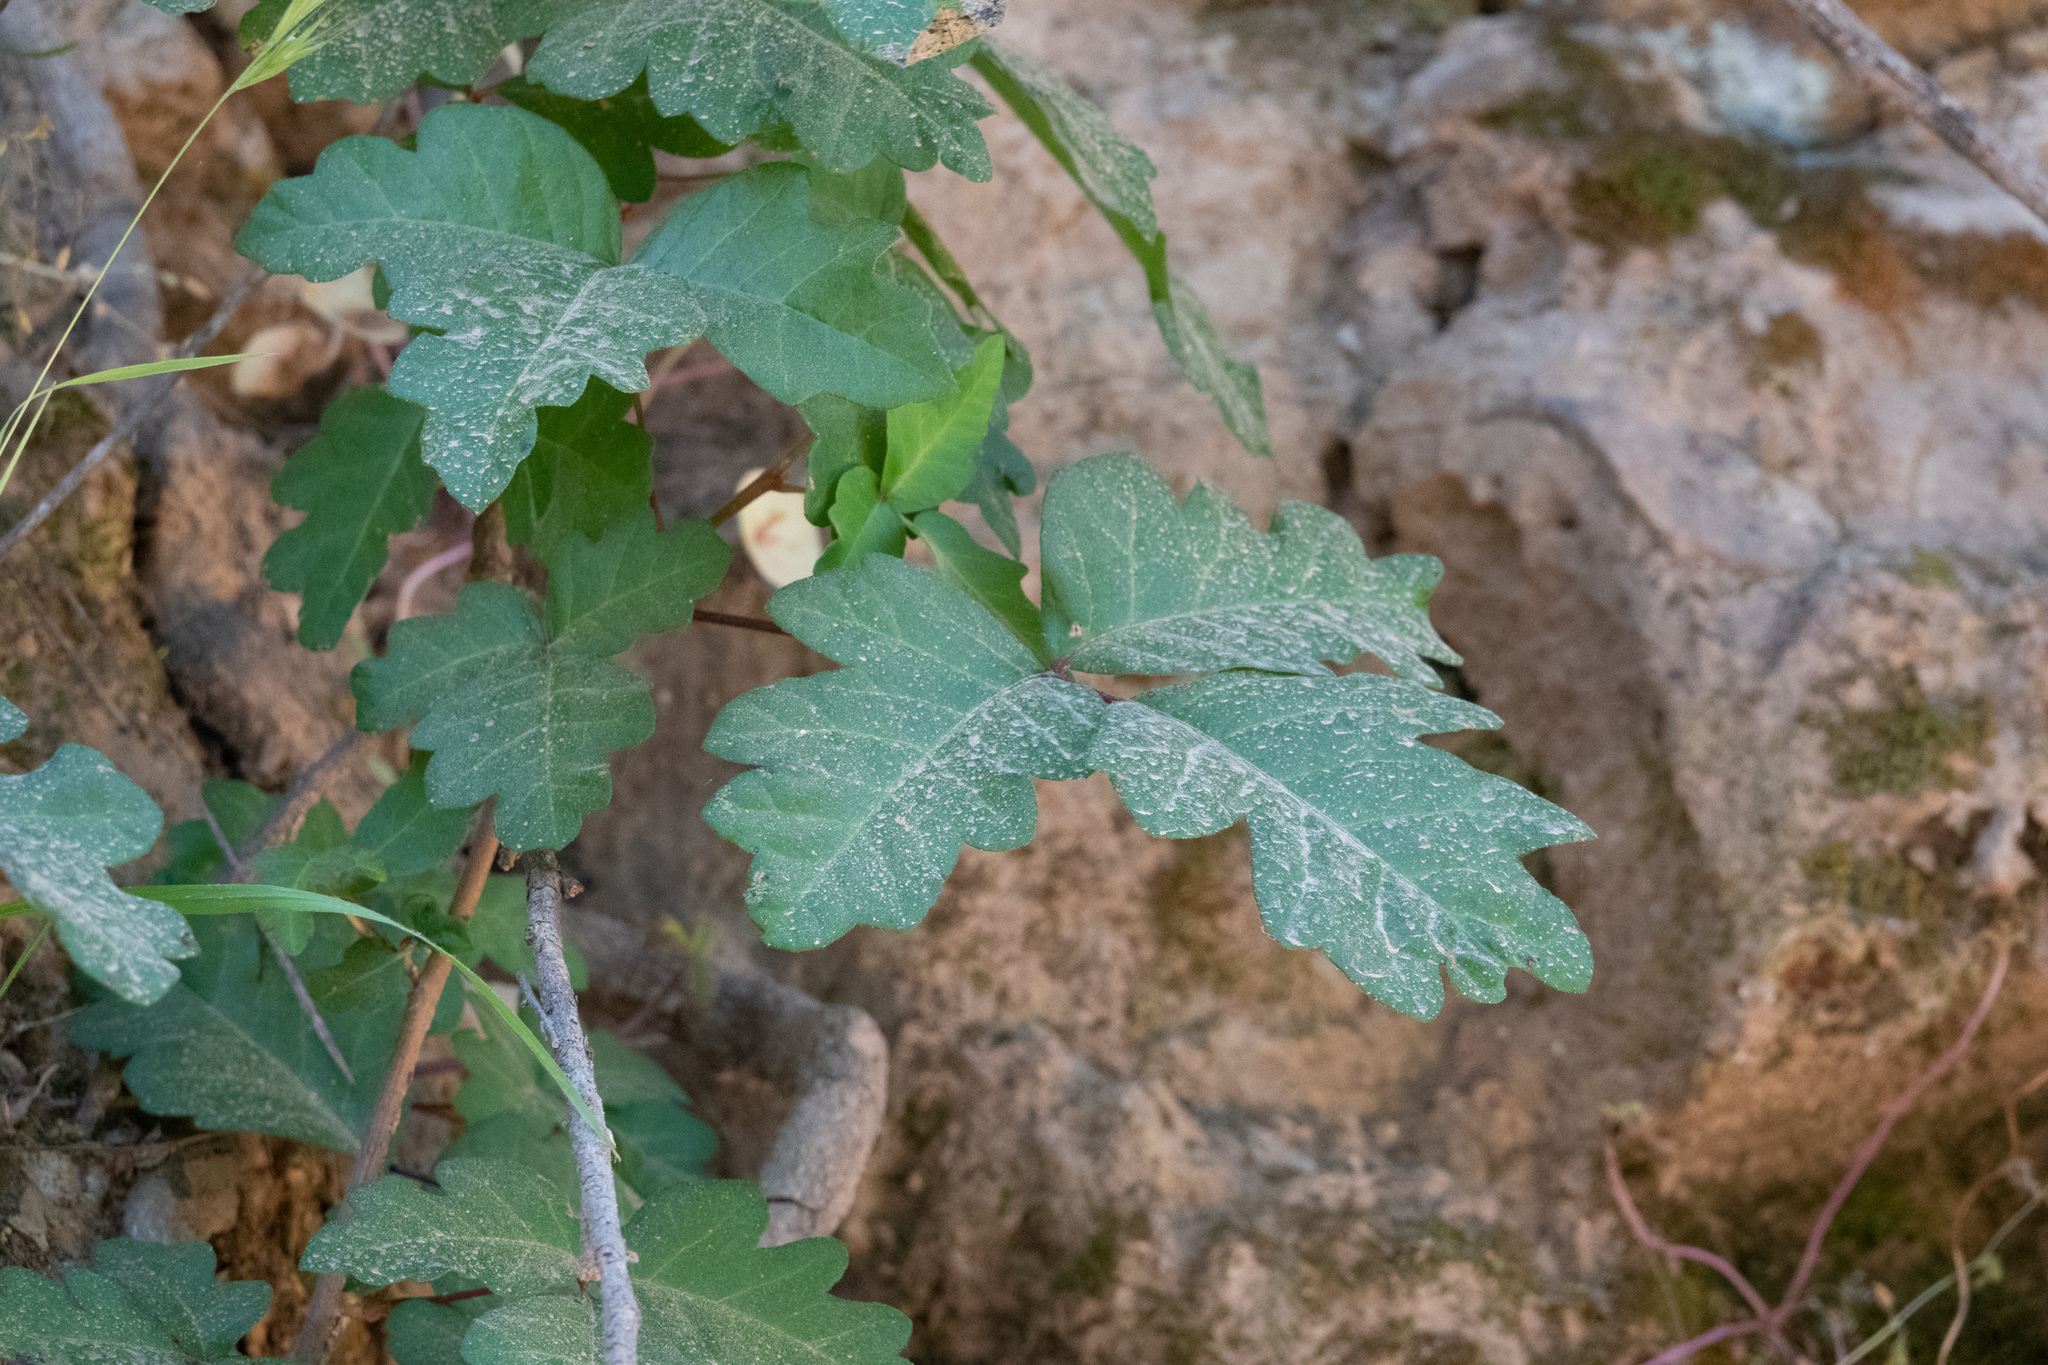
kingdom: Plantae
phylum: Tracheophyta
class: Magnoliopsida
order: Sapindales
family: Anacardiaceae
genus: Toxicodendron
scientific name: Toxicodendron diversilobum
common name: Pacific poison-oak
